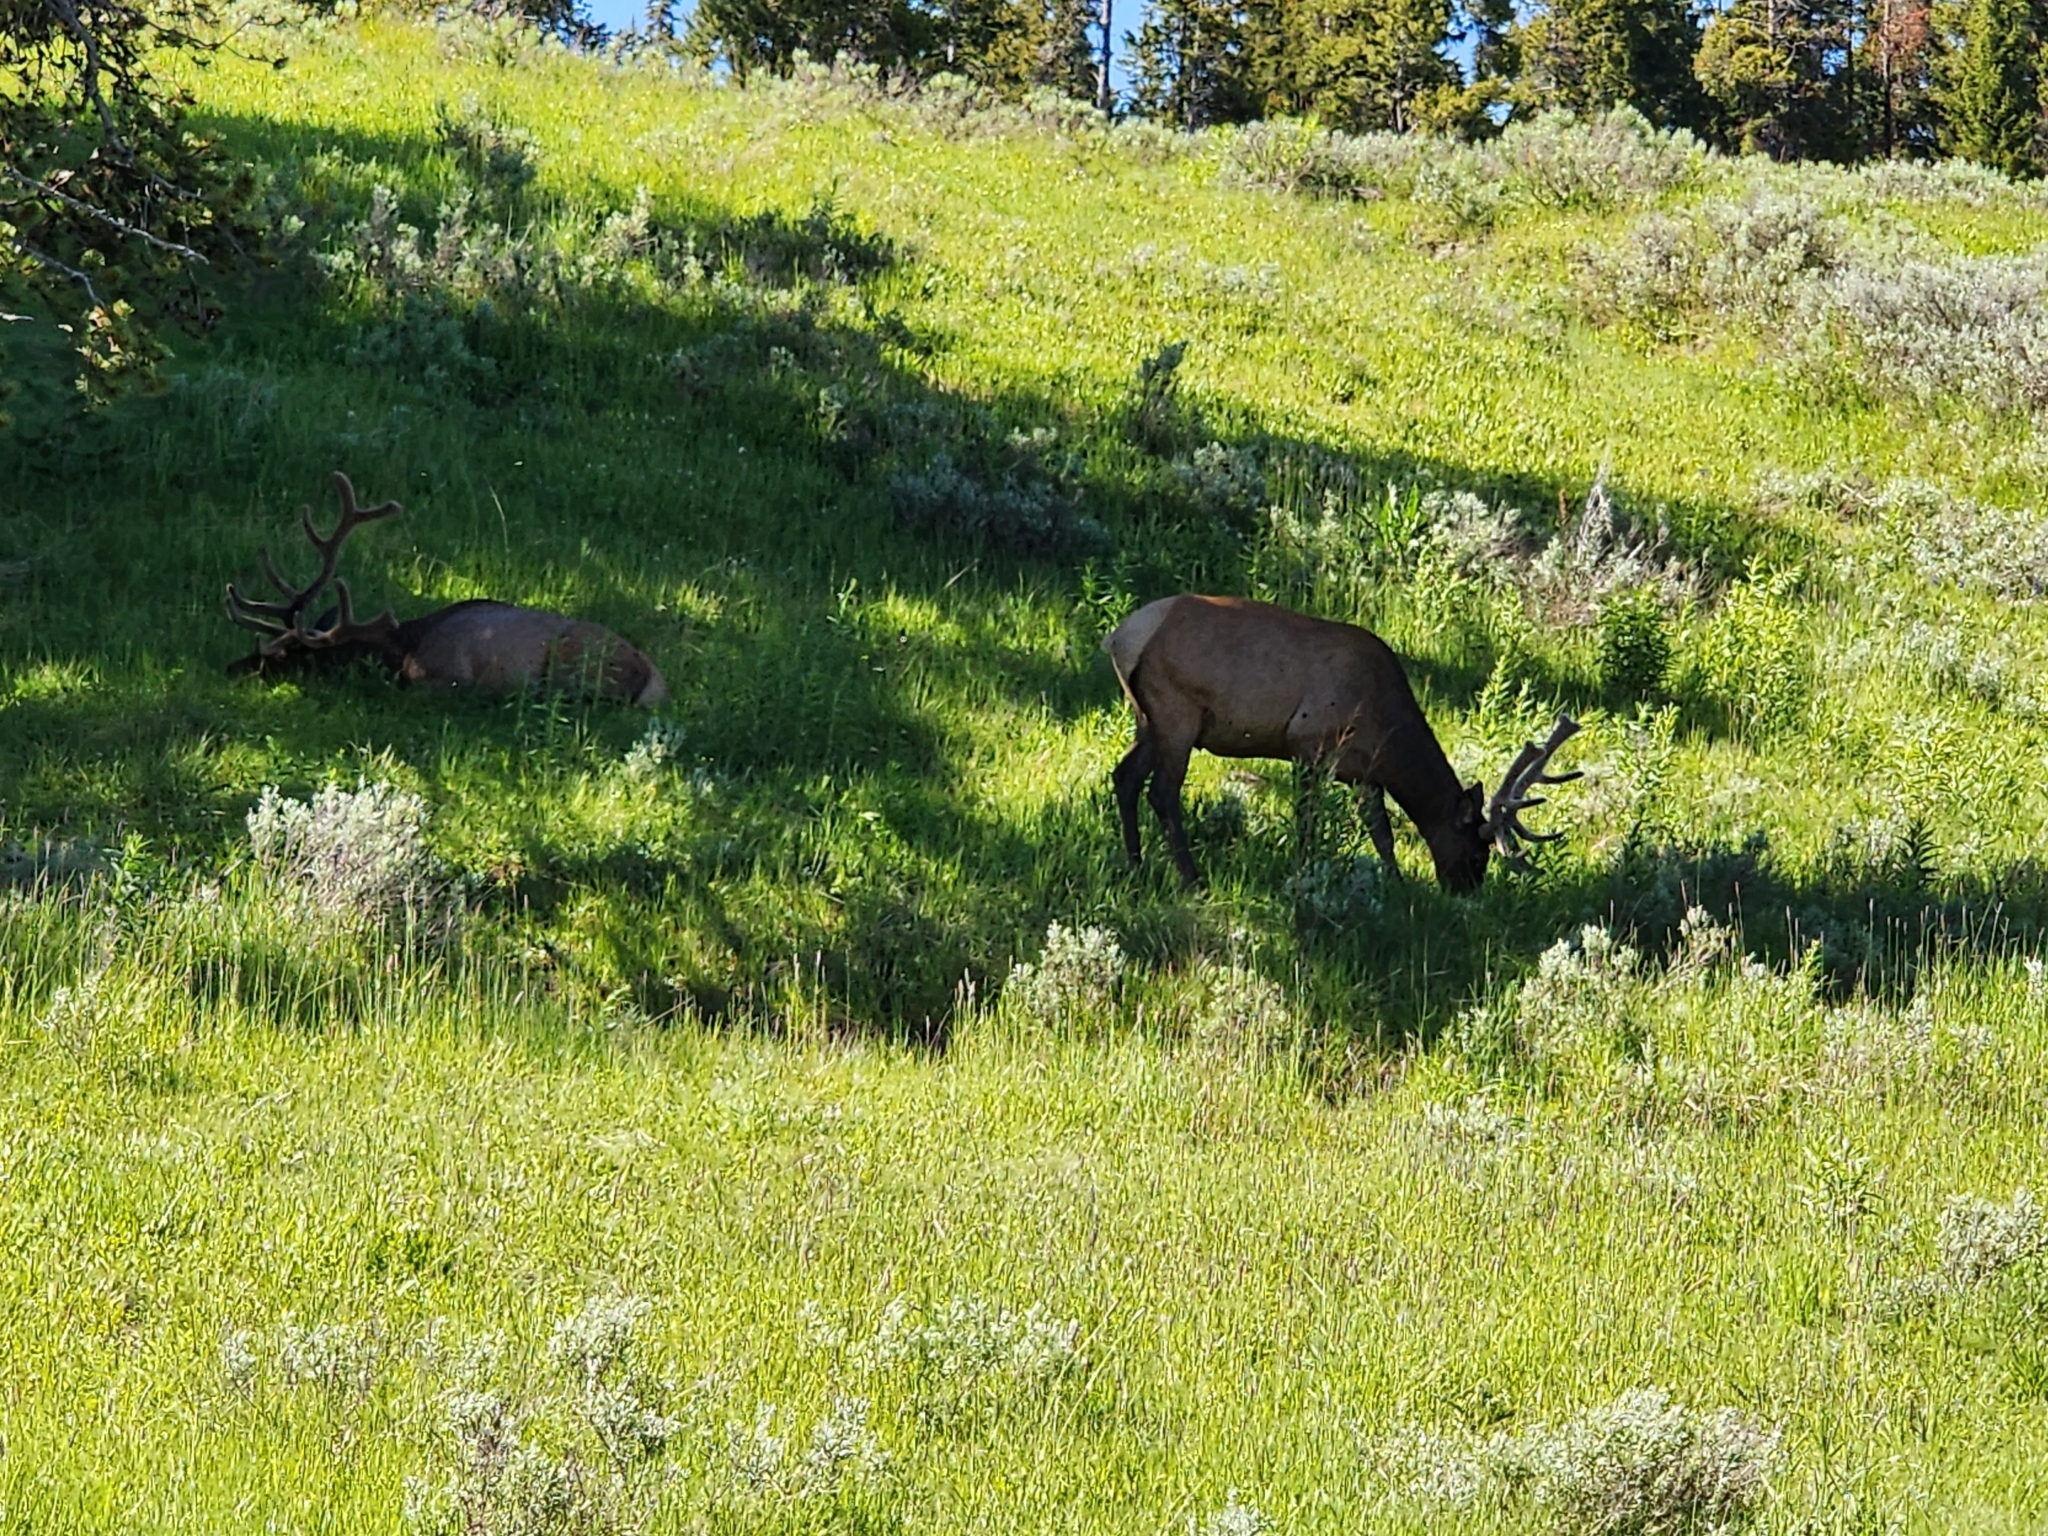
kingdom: Animalia
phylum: Chordata
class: Mammalia
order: Artiodactyla
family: Cervidae
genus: Cervus
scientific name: Cervus elaphus
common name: Red deer
